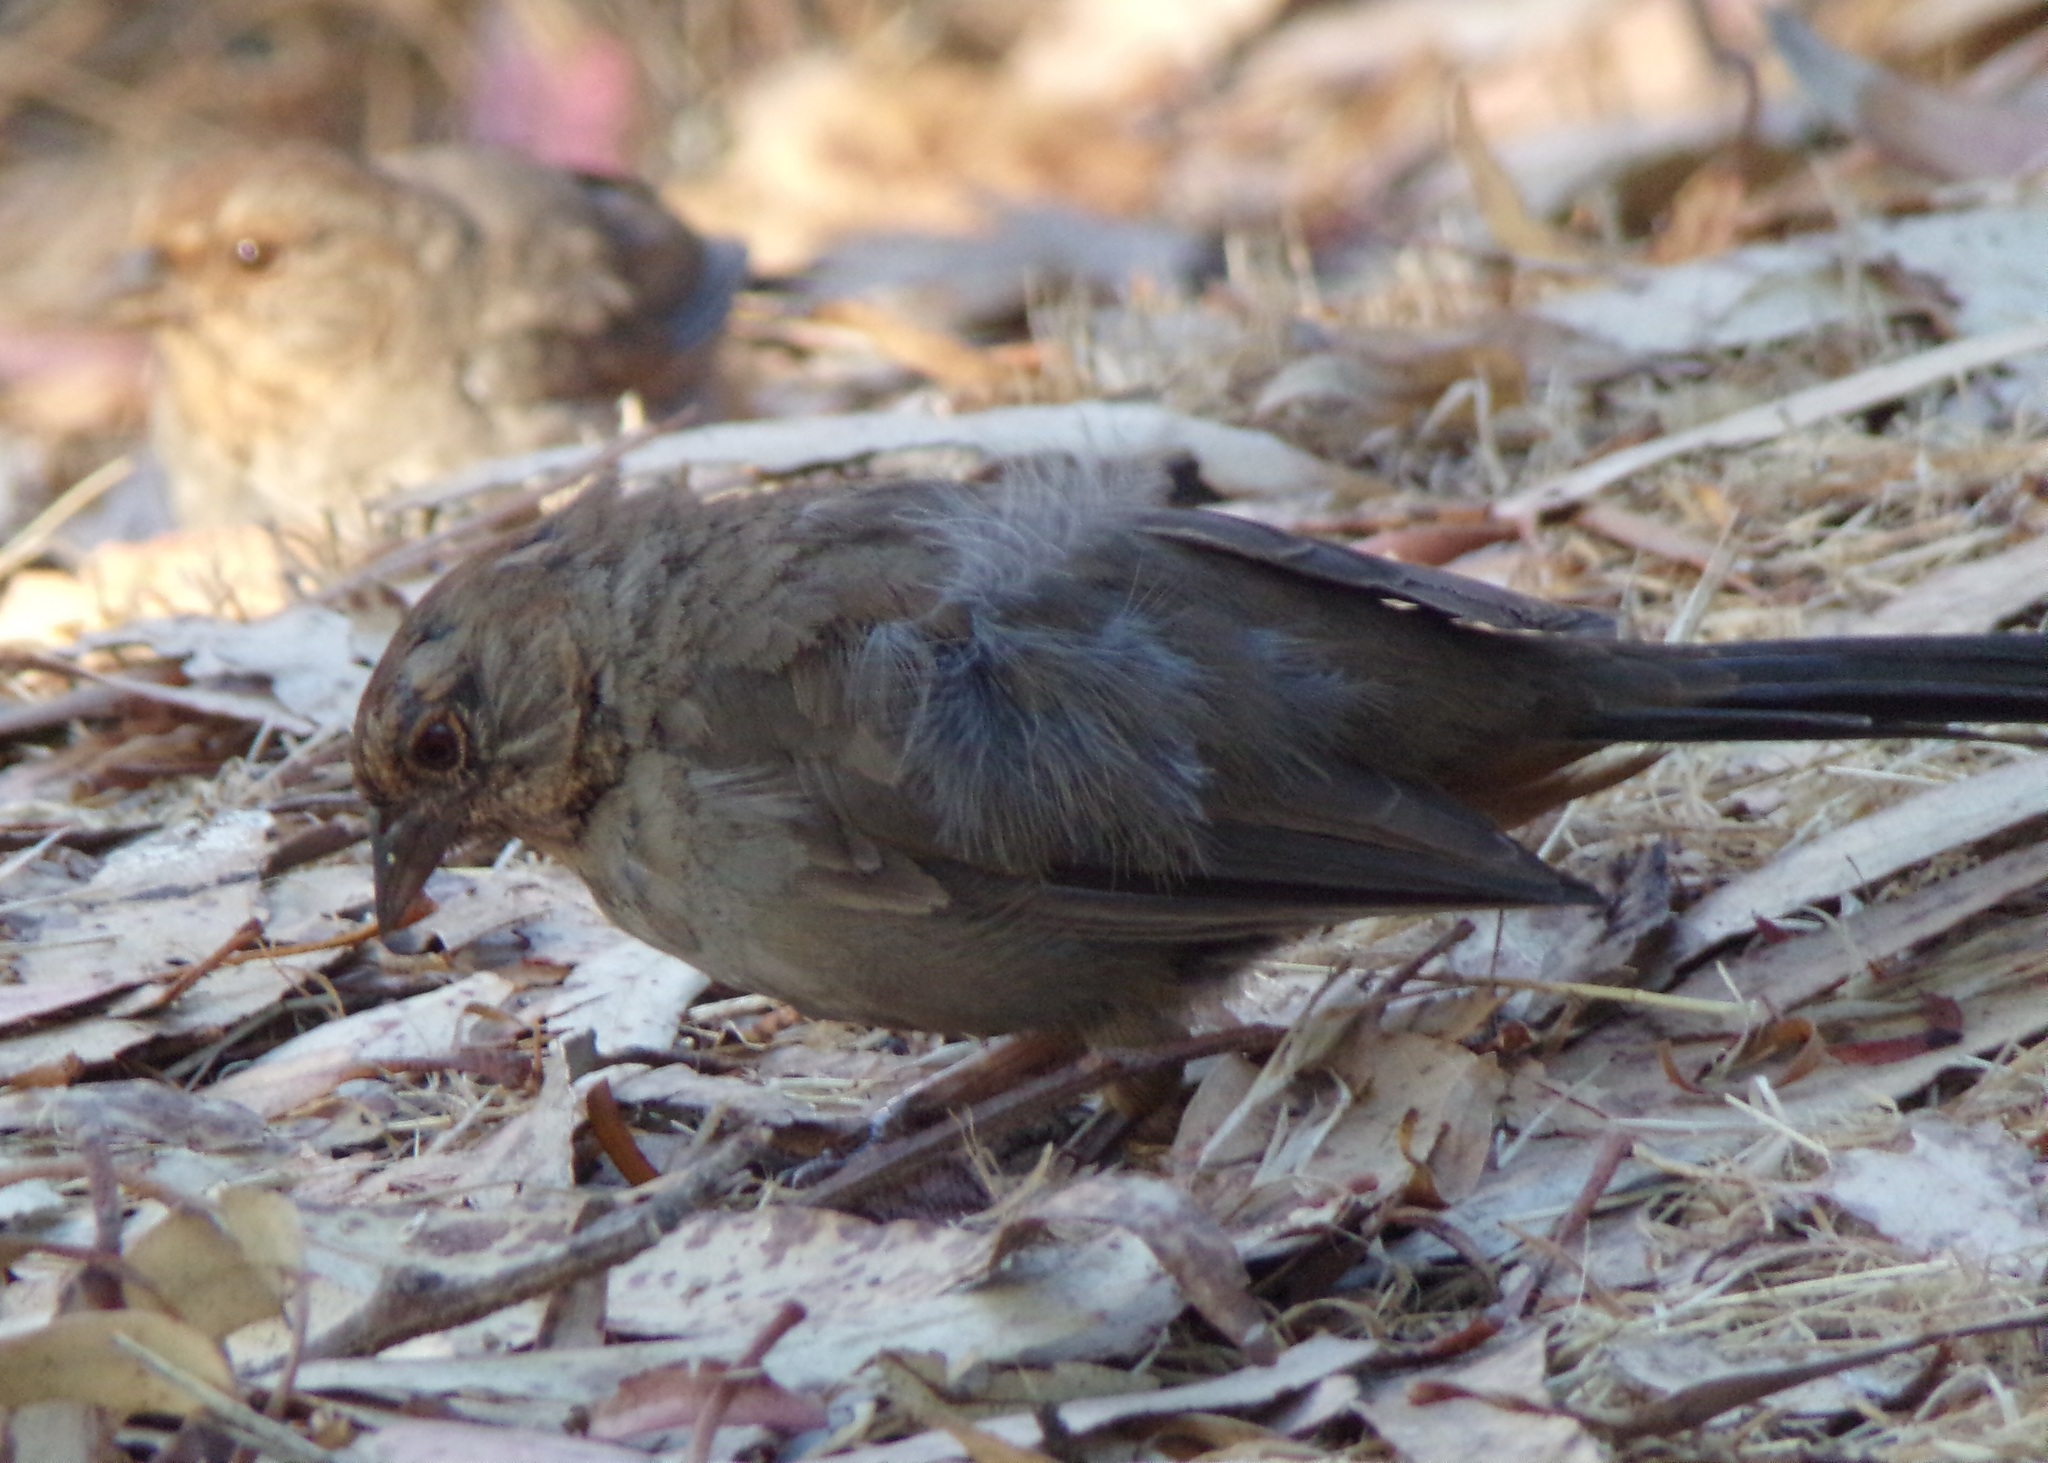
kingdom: Animalia
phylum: Chordata
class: Aves
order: Passeriformes
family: Passerellidae
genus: Melozone
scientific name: Melozone crissalis
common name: California towhee
